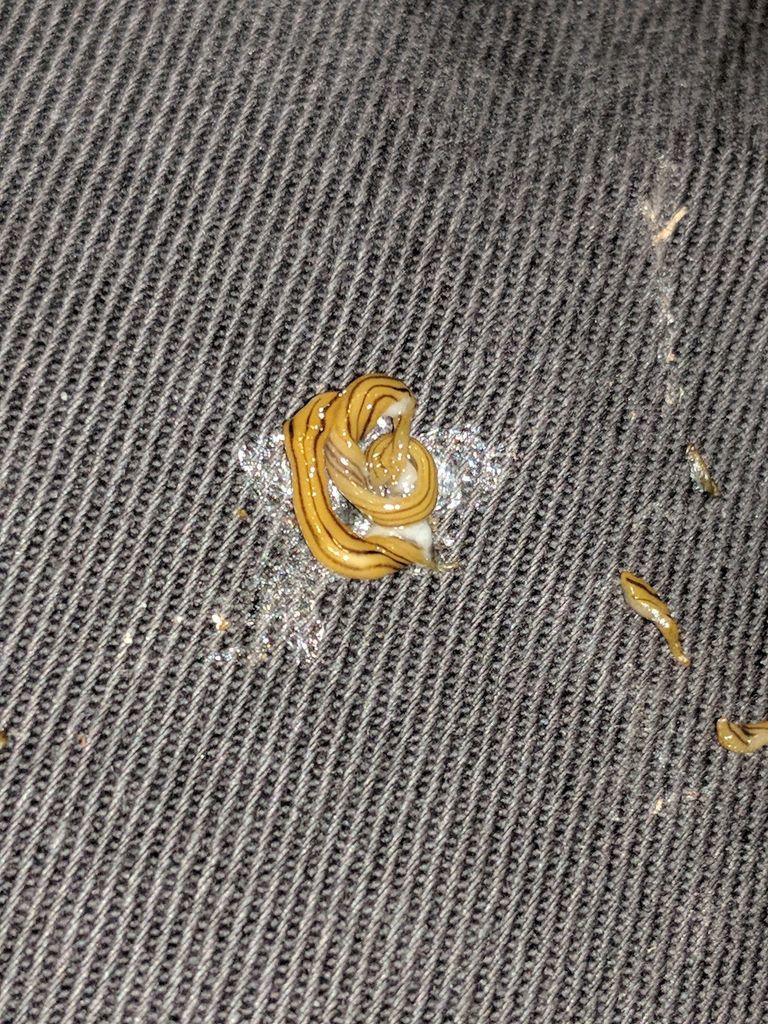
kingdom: Animalia
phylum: Platyhelminthes
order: Tricladida
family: Geoplanidae
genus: Diversibipalium
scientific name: Diversibipalium multilineatum
